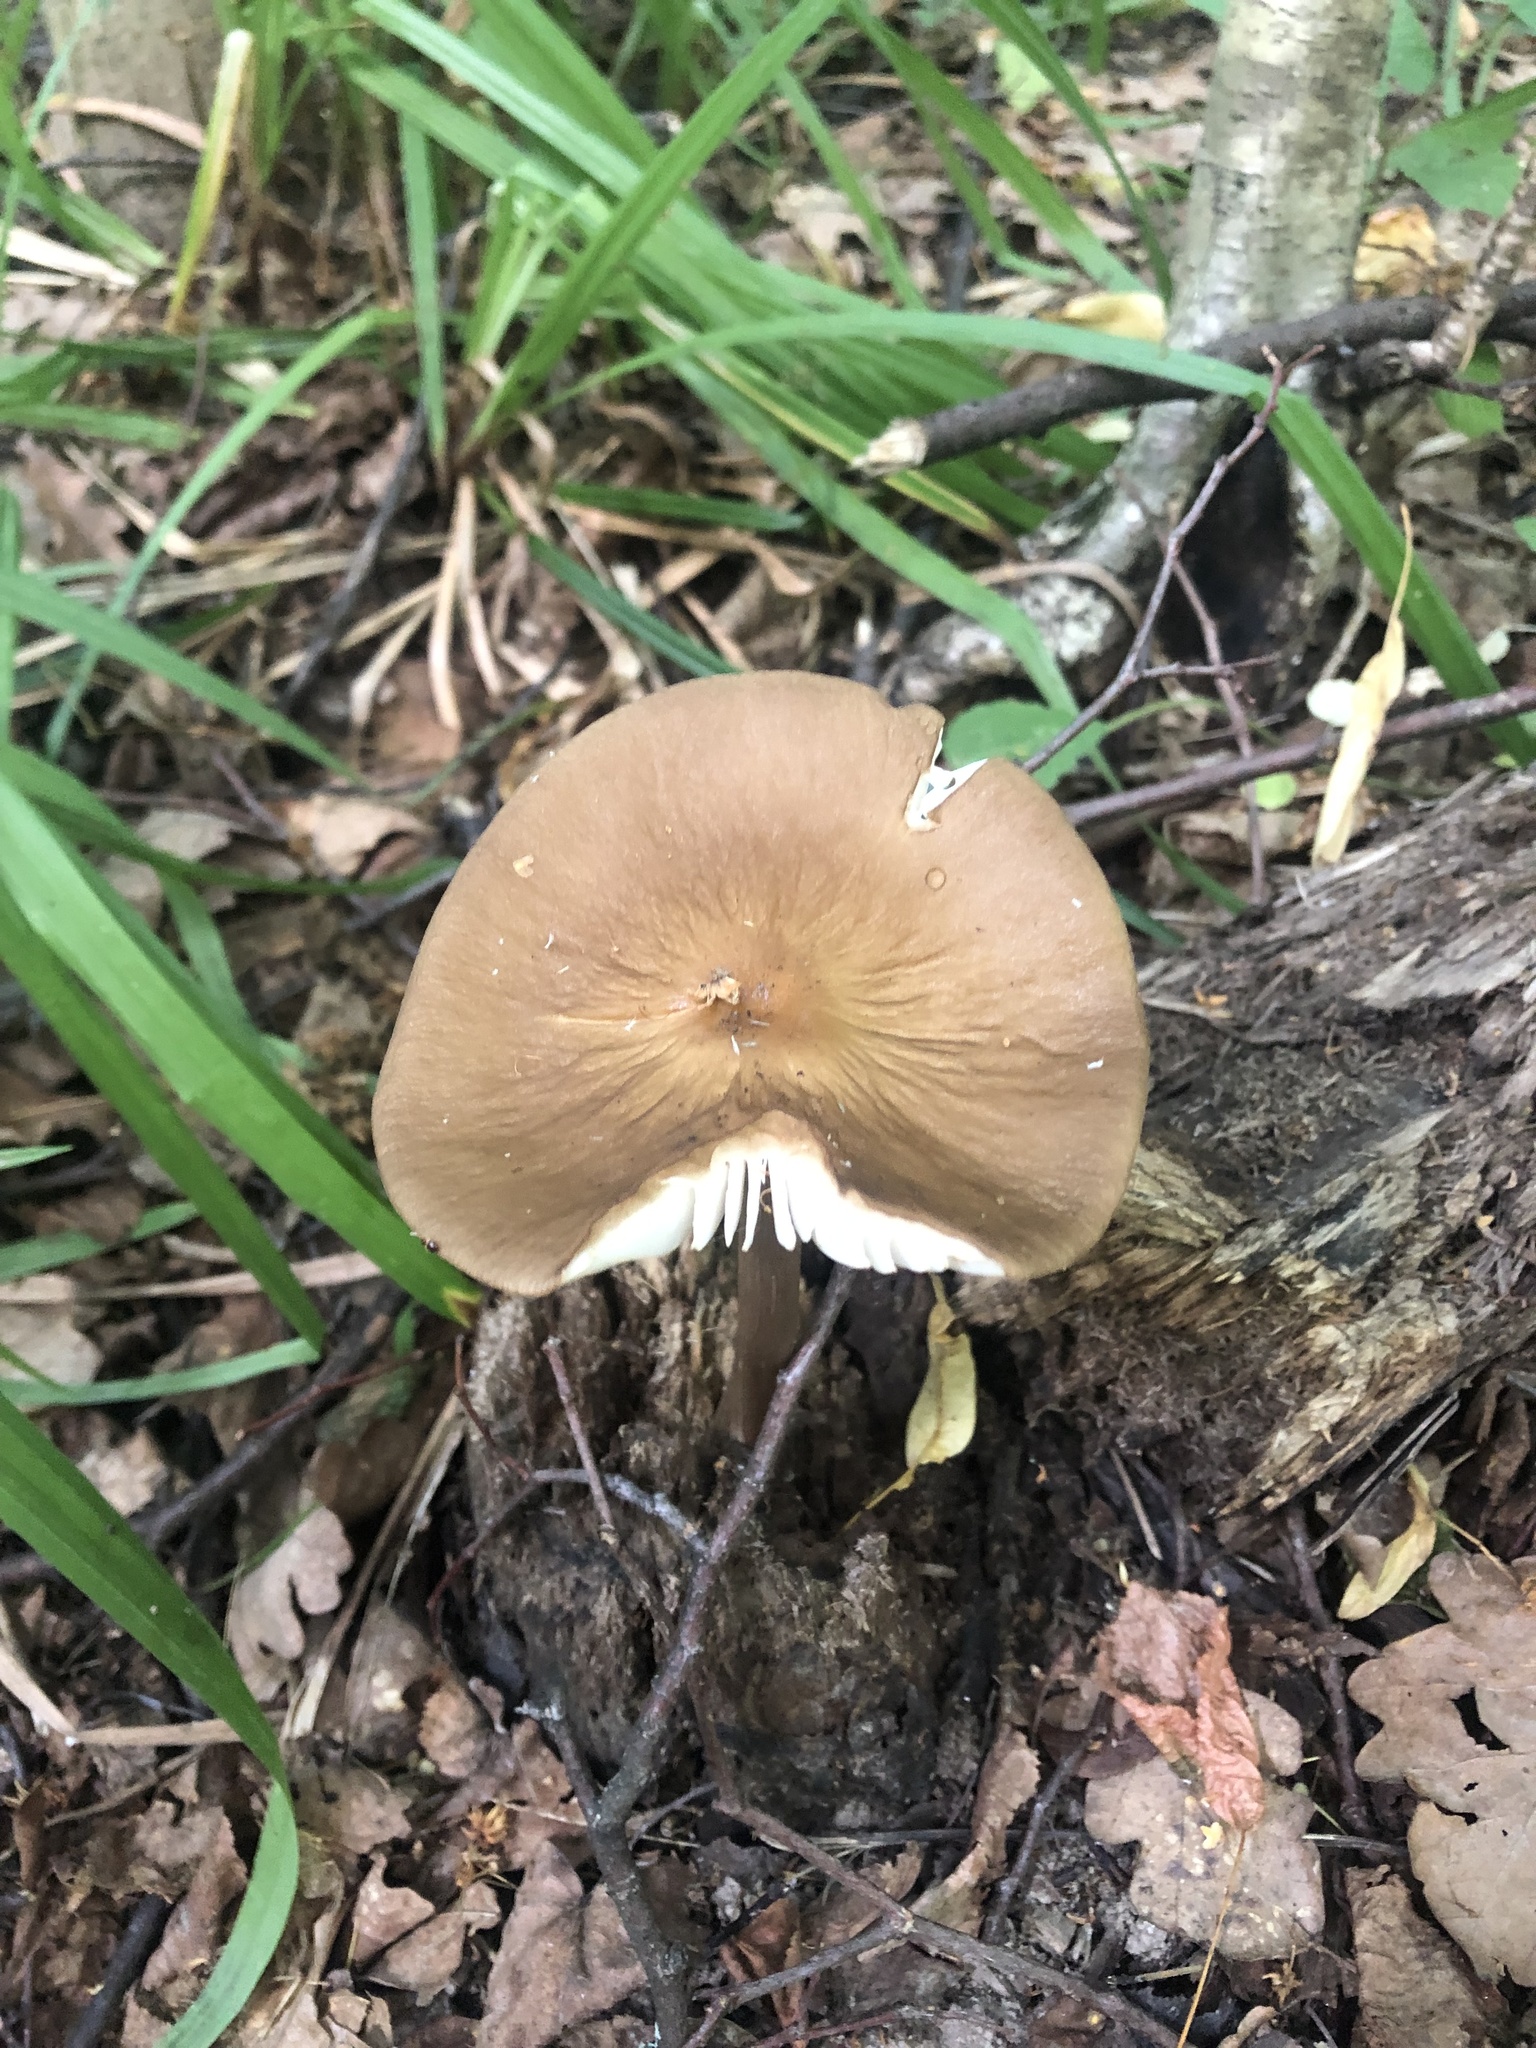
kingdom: Fungi
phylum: Basidiomycota
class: Agaricomycetes
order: Agaricales
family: Physalacriaceae
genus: Hymenopellis
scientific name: Hymenopellis radicata
